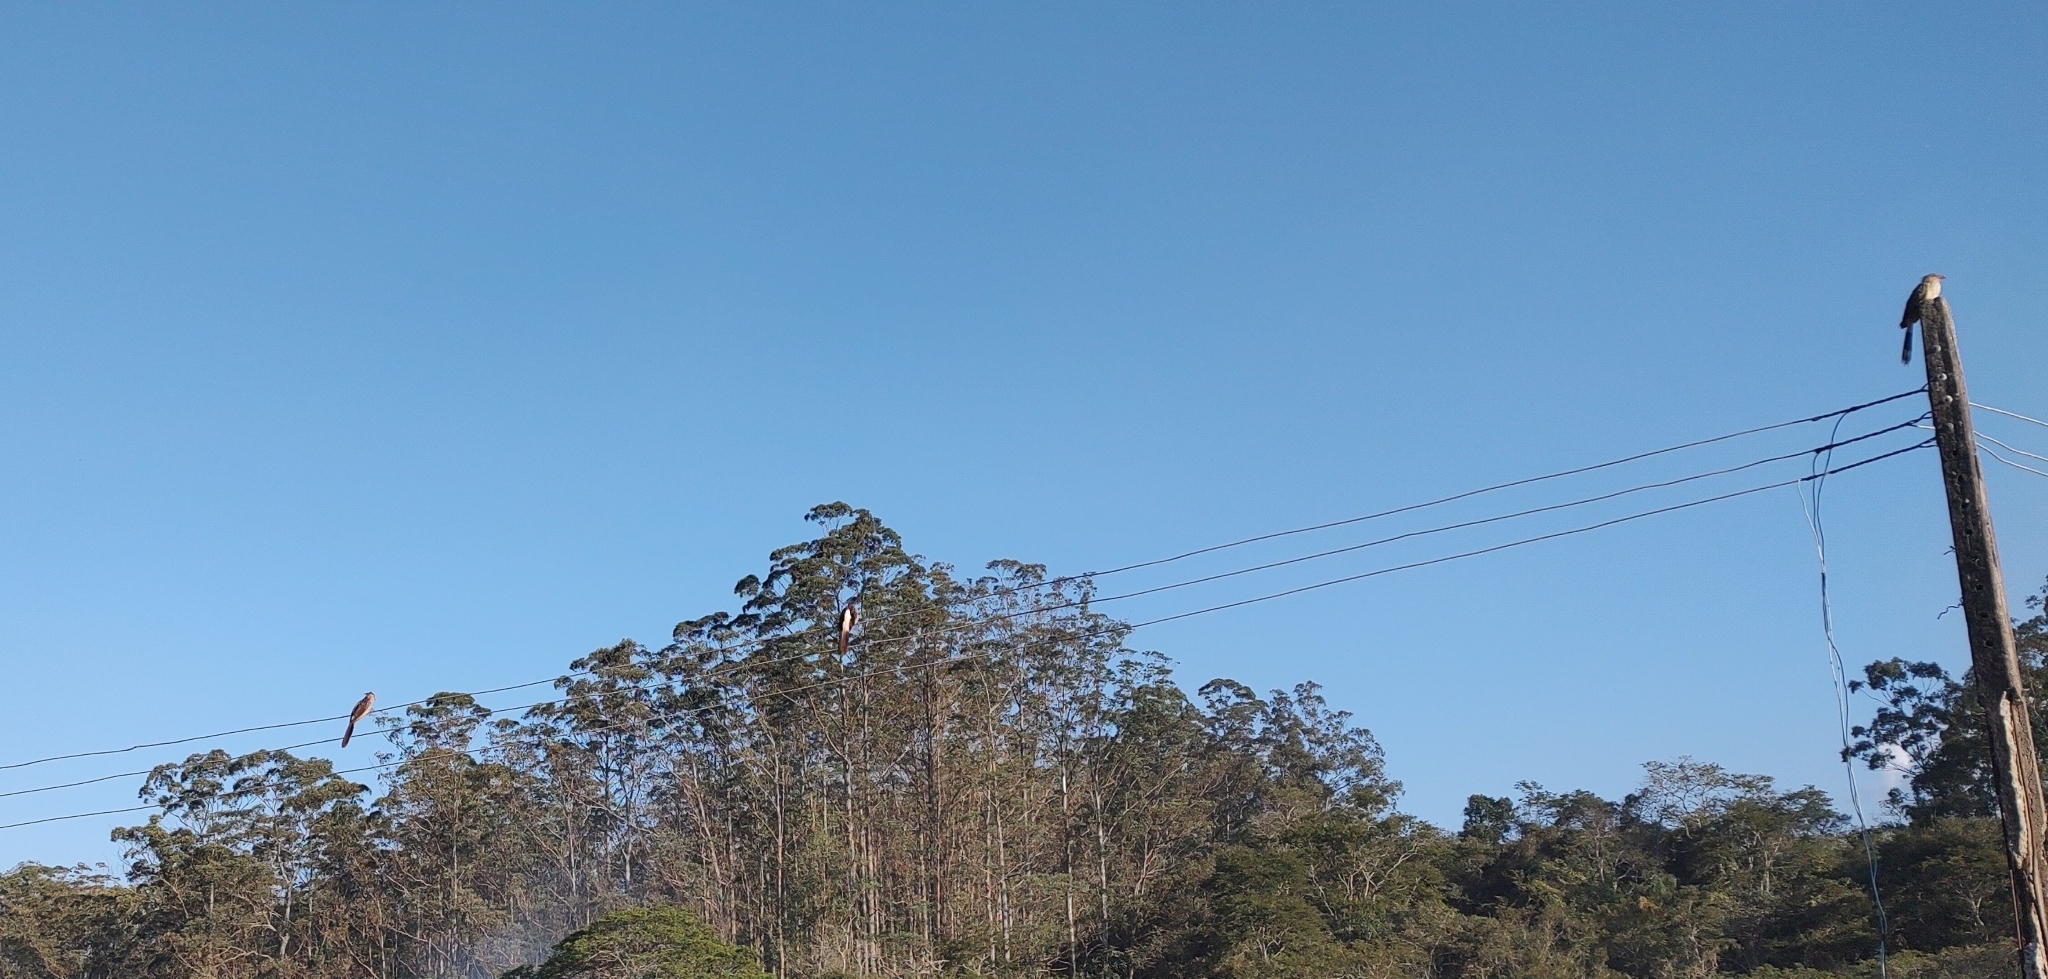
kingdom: Animalia
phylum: Chordata
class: Aves
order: Cuculiformes
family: Cuculidae
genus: Guira
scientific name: Guira guira
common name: Guira cuckoo
